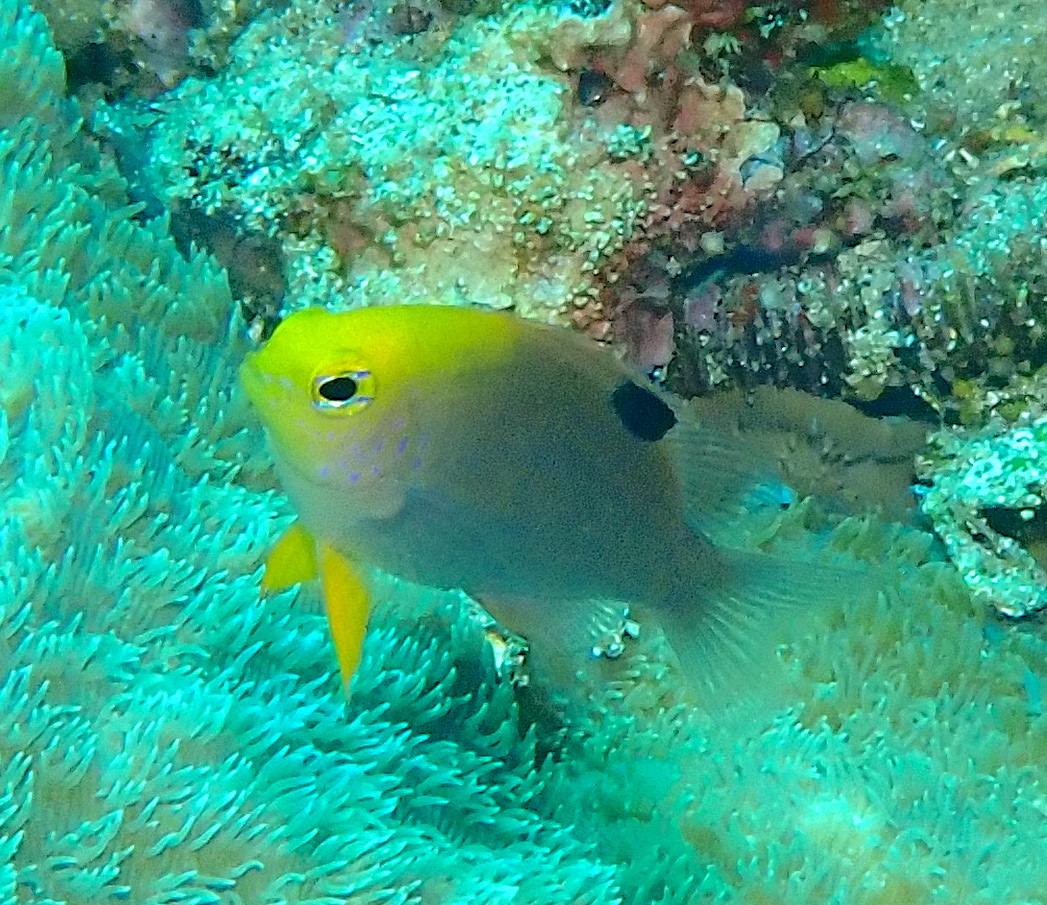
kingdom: Animalia
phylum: Chordata
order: Perciformes
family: Pomacentridae
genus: Chrysiptera
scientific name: Chrysiptera talboti
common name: Talbot's demoiselle
